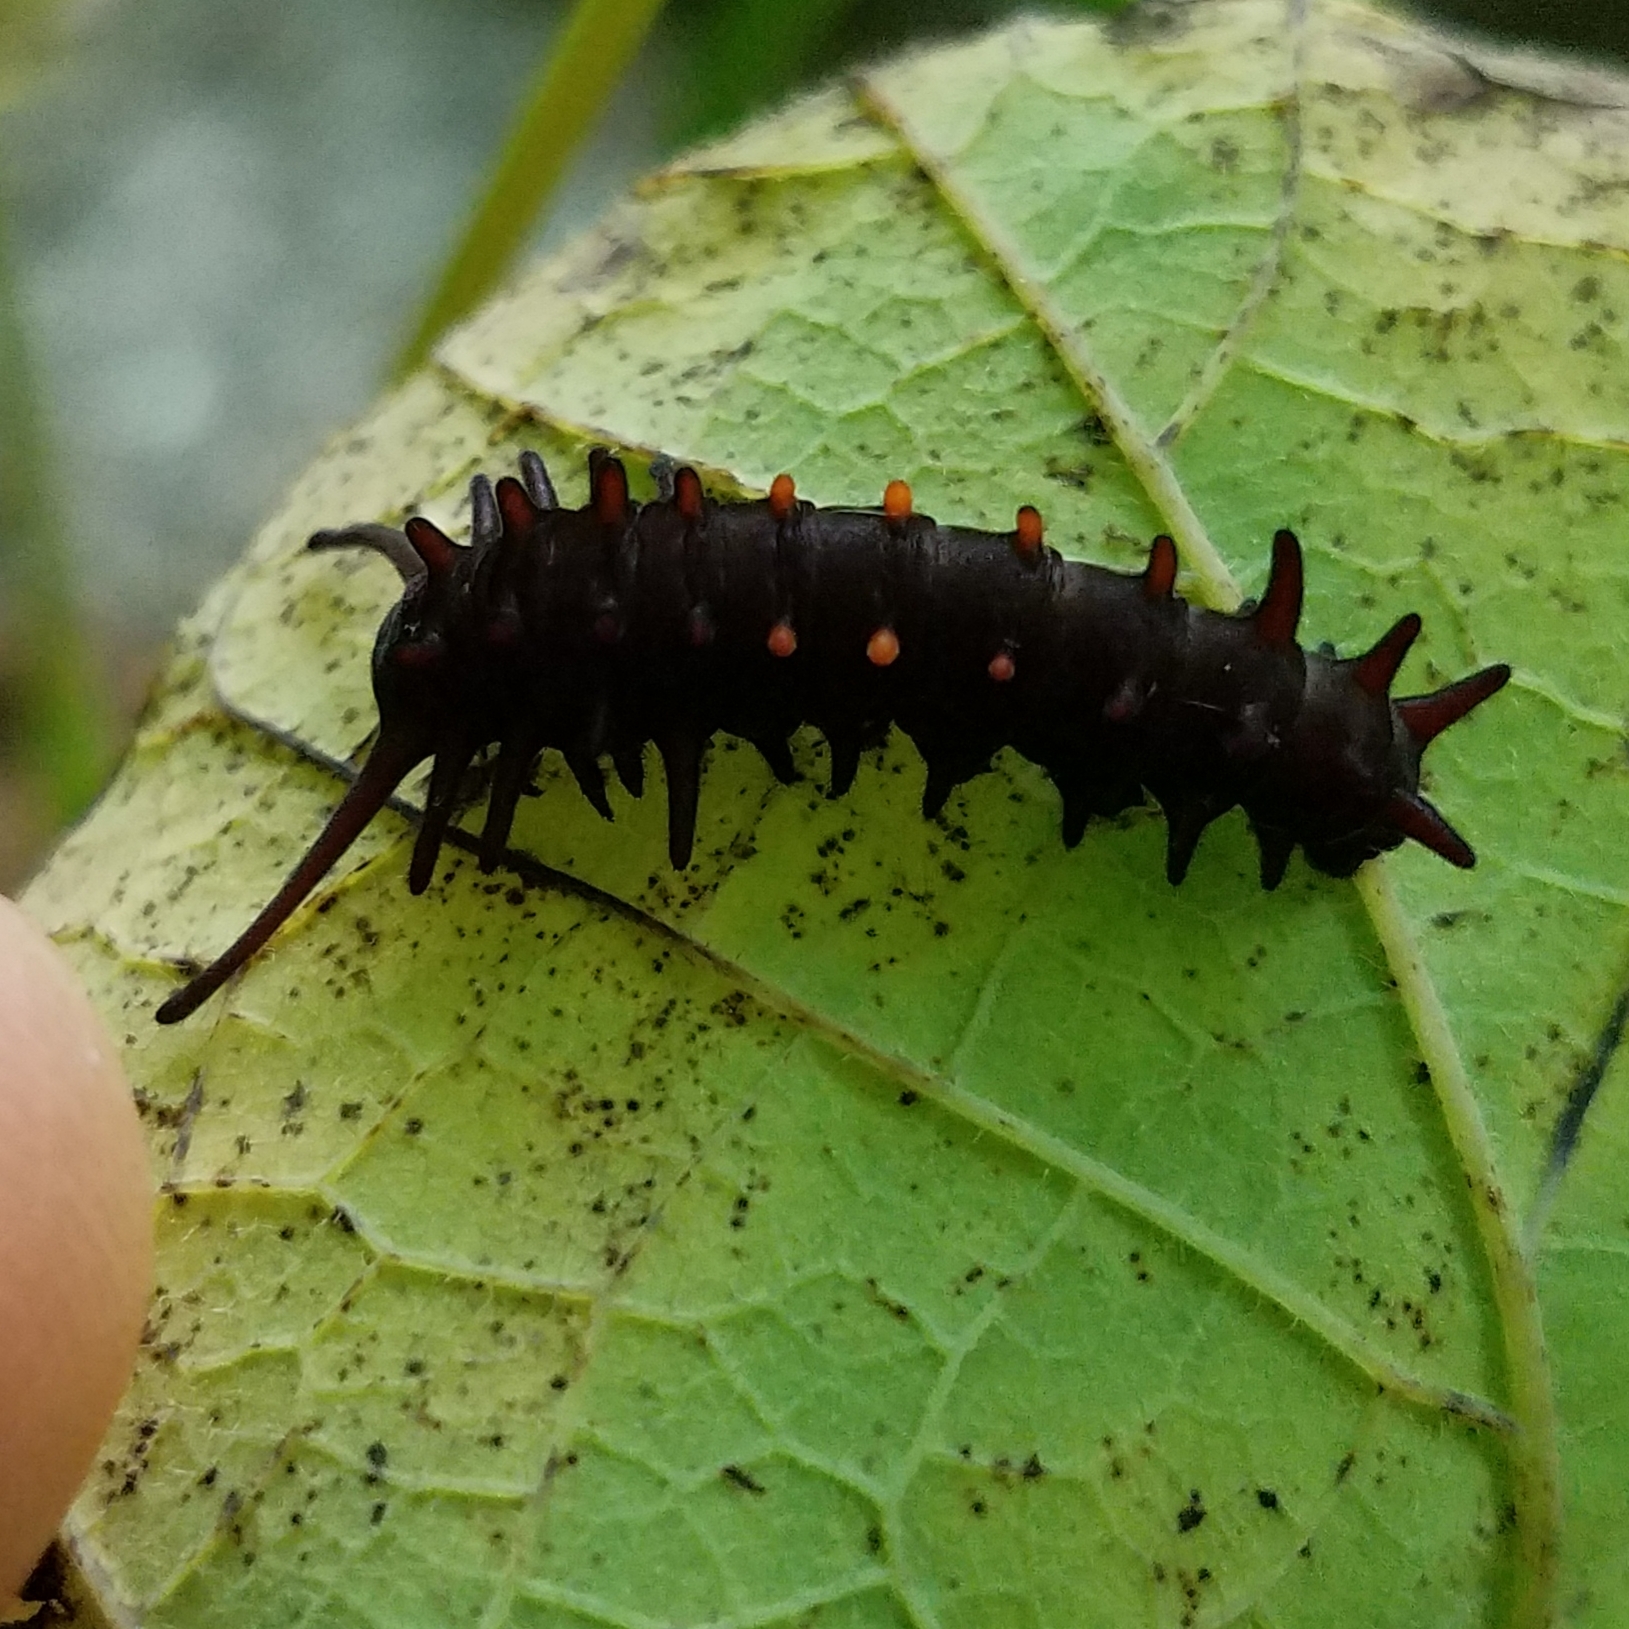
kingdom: Animalia
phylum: Arthropoda
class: Insecta
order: Lepidoptera
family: Papilionidae
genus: Battus
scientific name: Battus philenor
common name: Pipevine swallowtail
